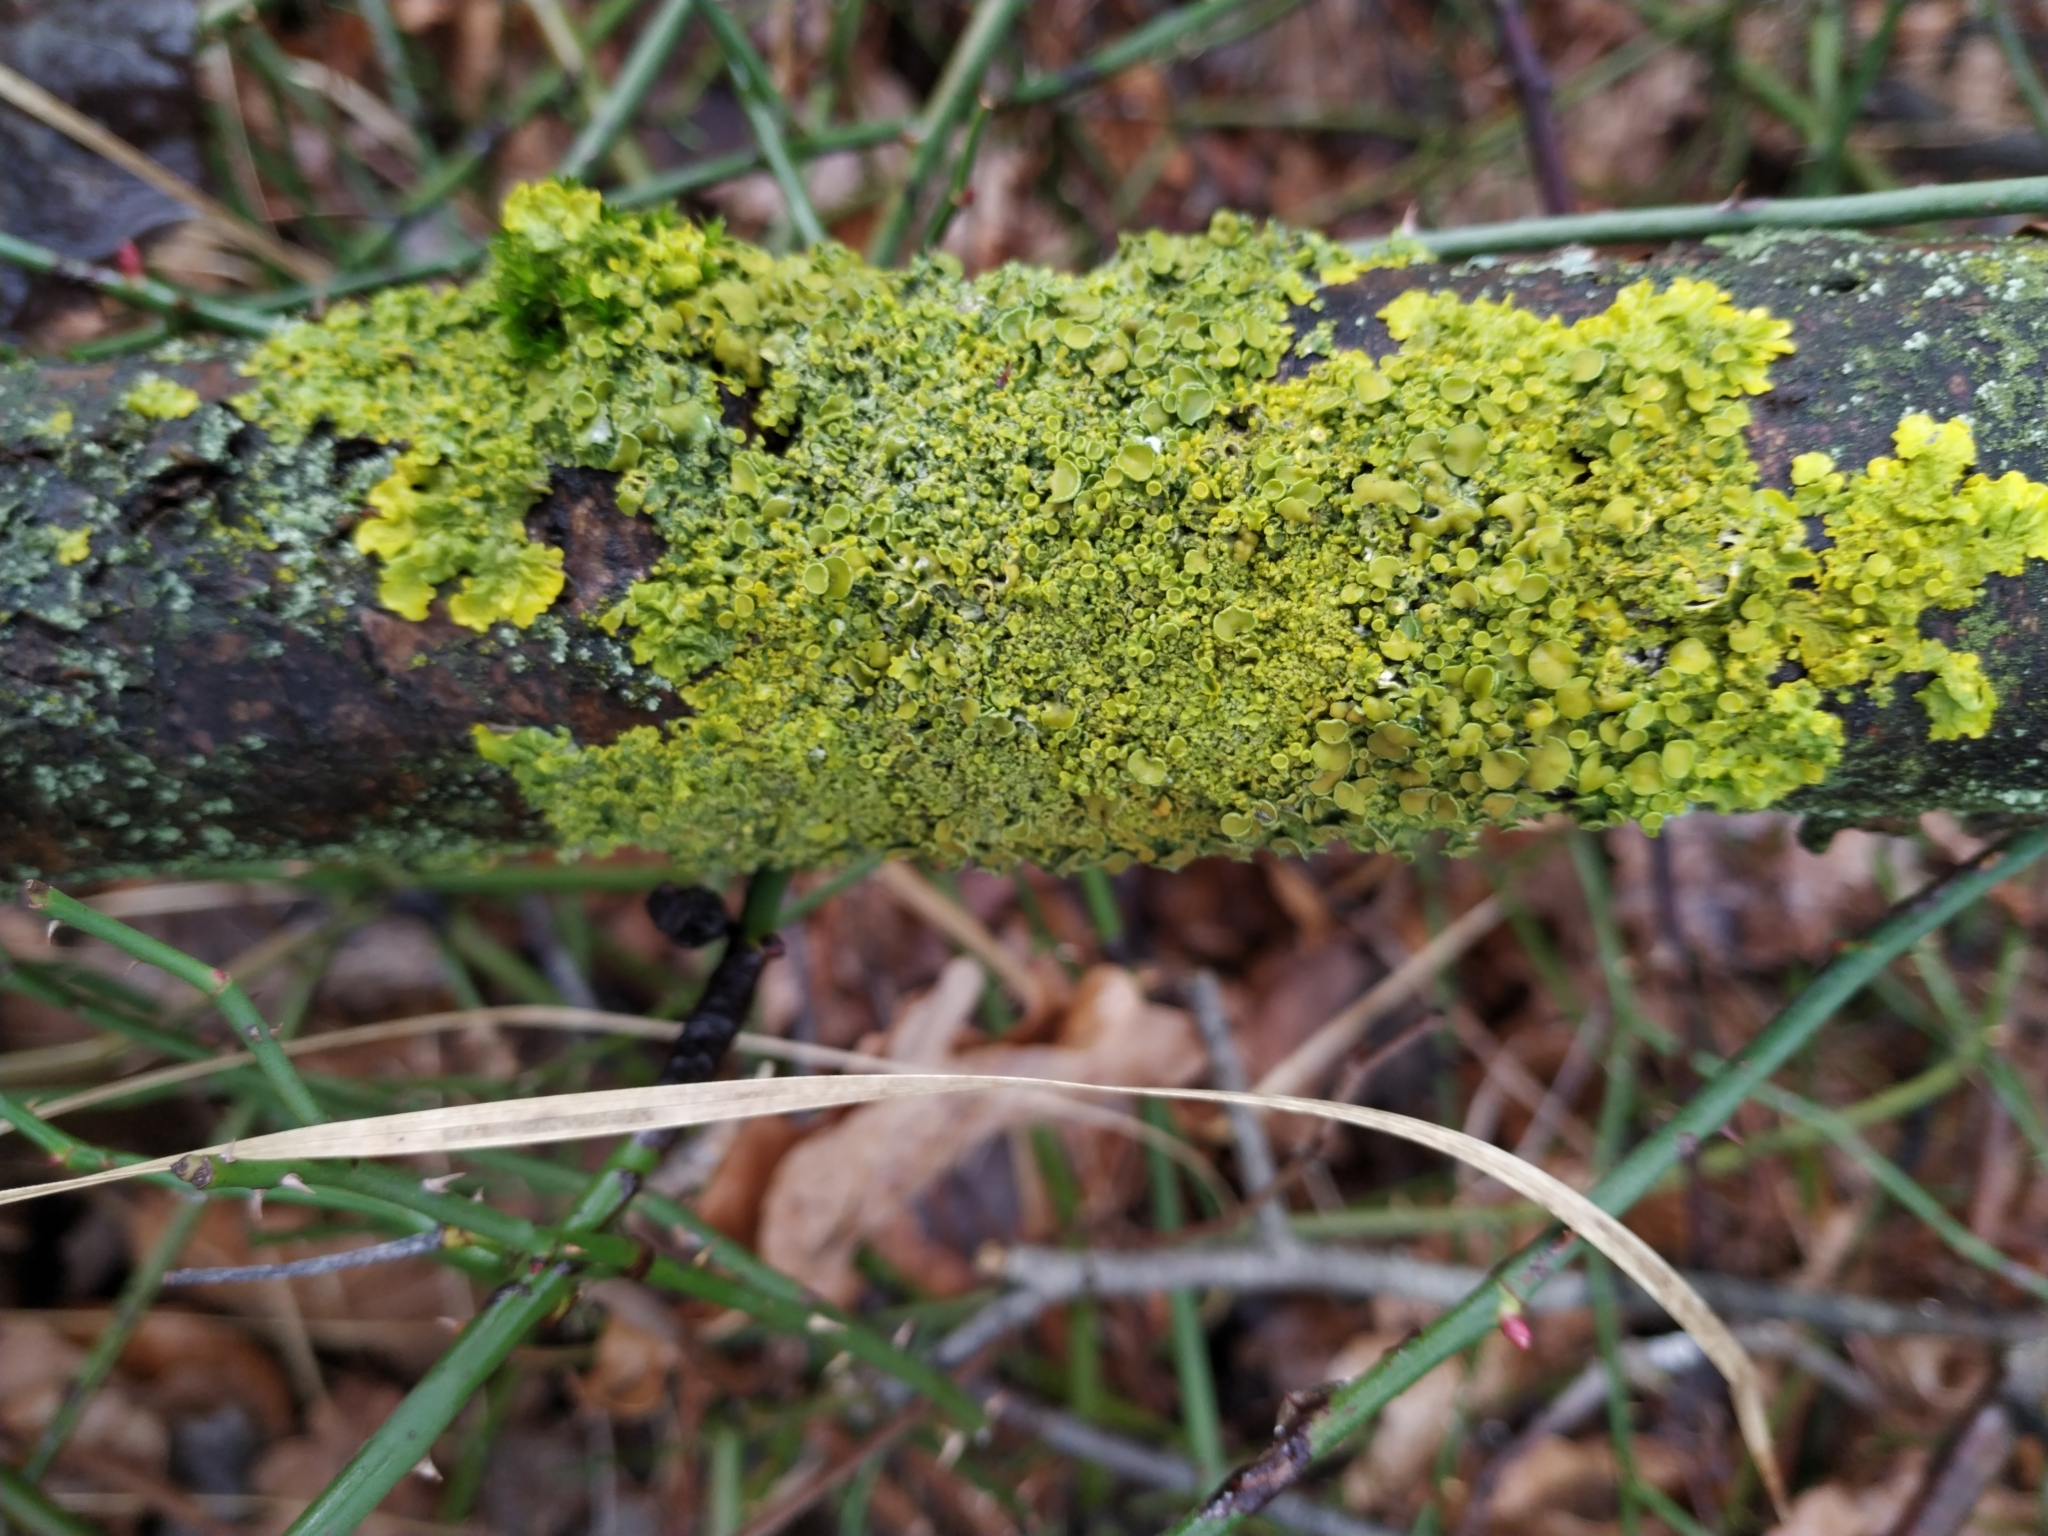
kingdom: Fungi
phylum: Ascomycota
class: Lecanoromycetes
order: Teloschistales
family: Teloschistaceae
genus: Xanthoria
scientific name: Xanthoria parietina
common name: Common orange lichen
